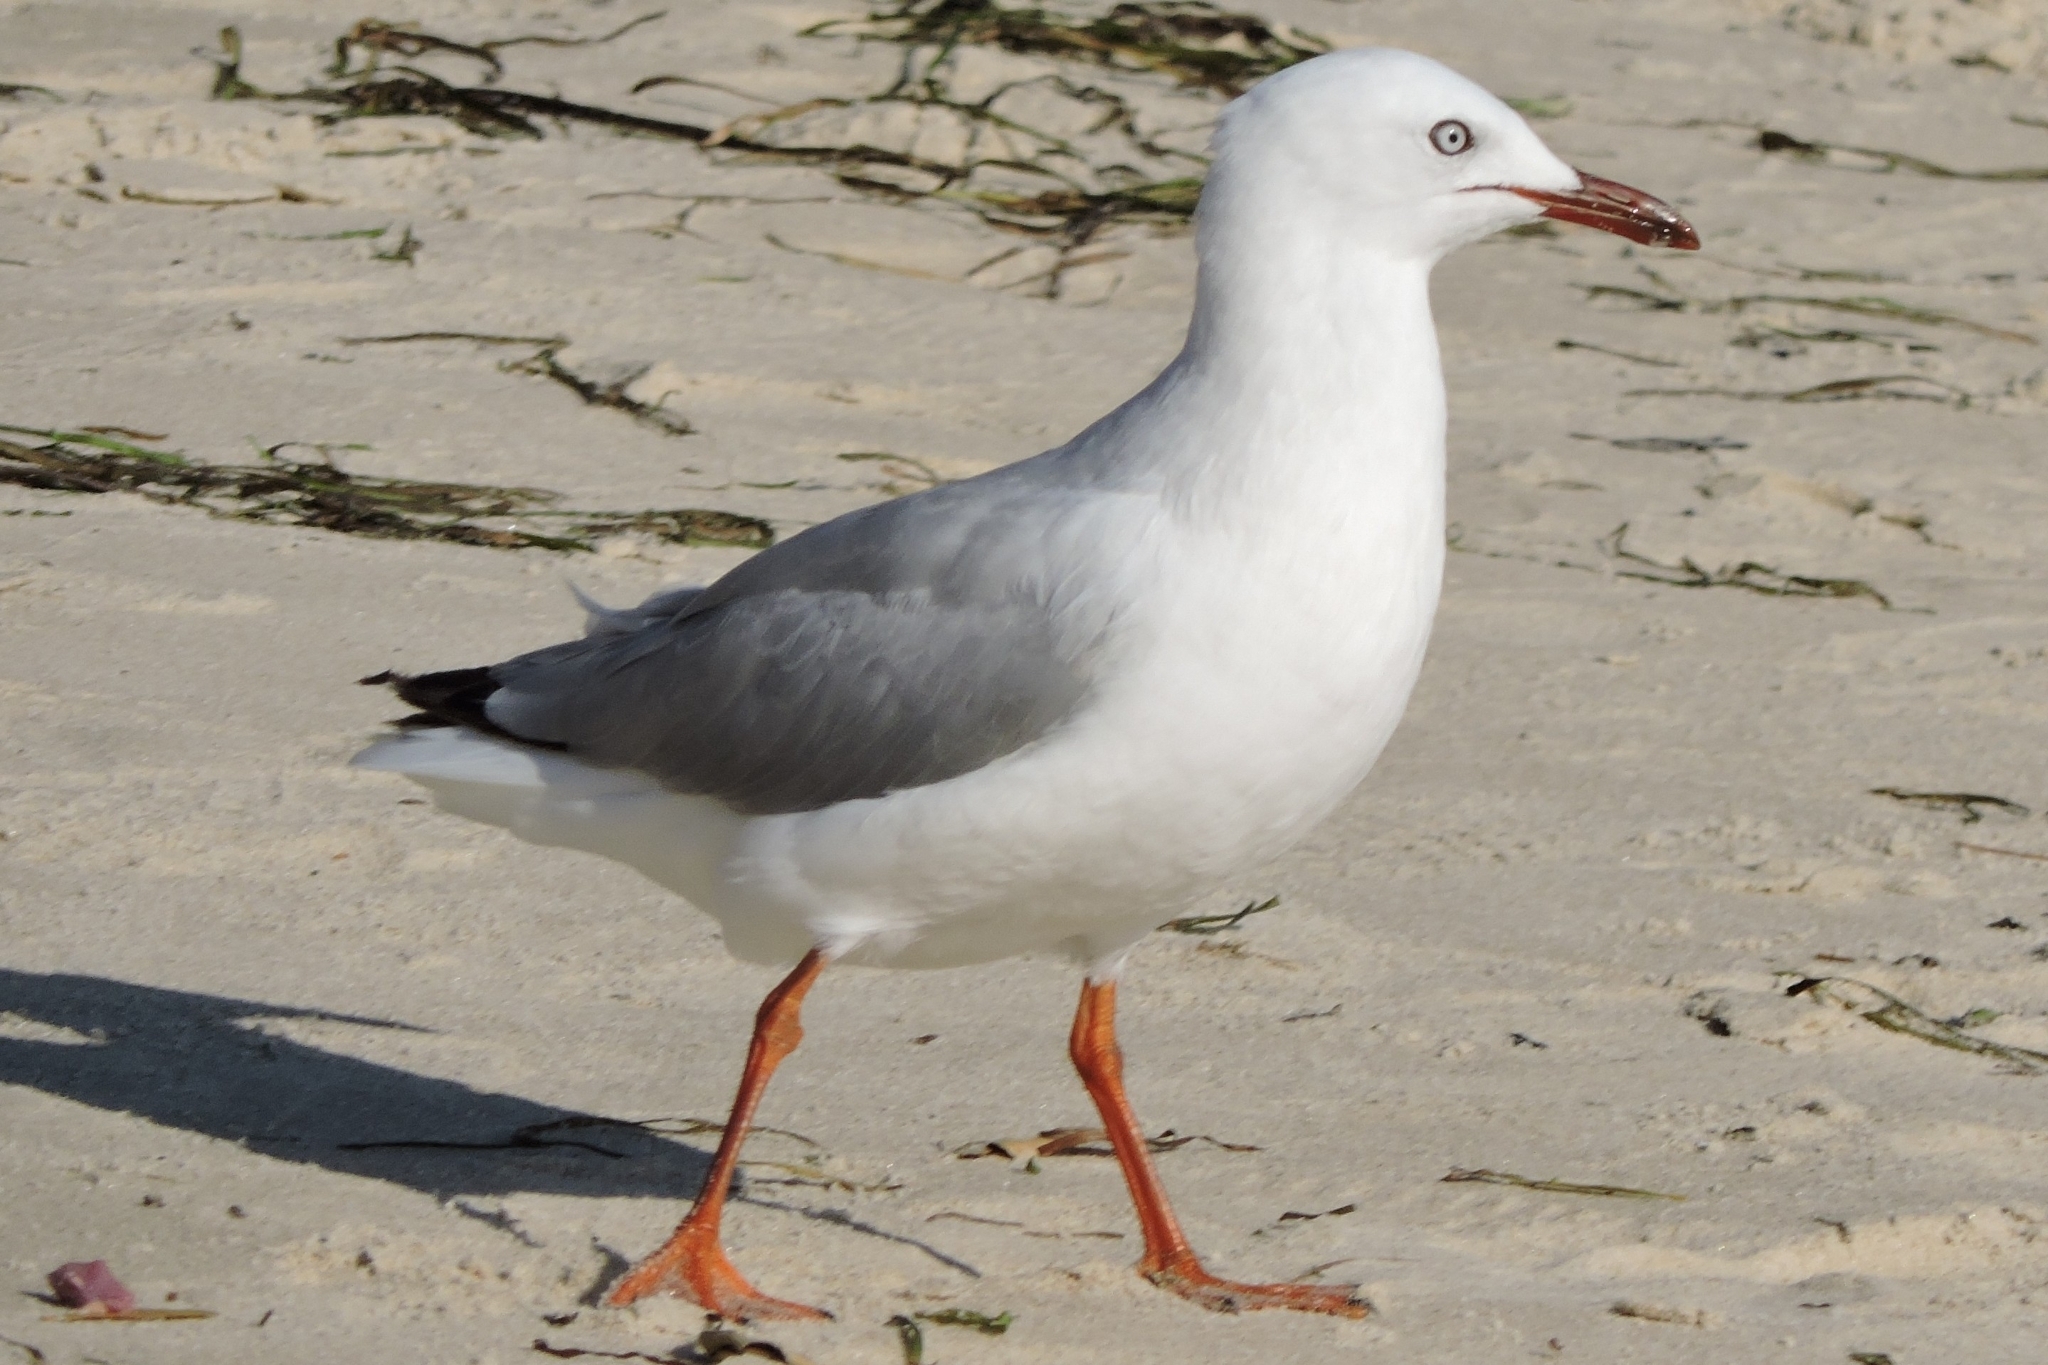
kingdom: Animalia
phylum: Chordata
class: Aves
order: Charadriiformes
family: Laridae
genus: Chroicocephalus
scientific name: Chroicocephalus novaehollandiae
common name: Silver gull
